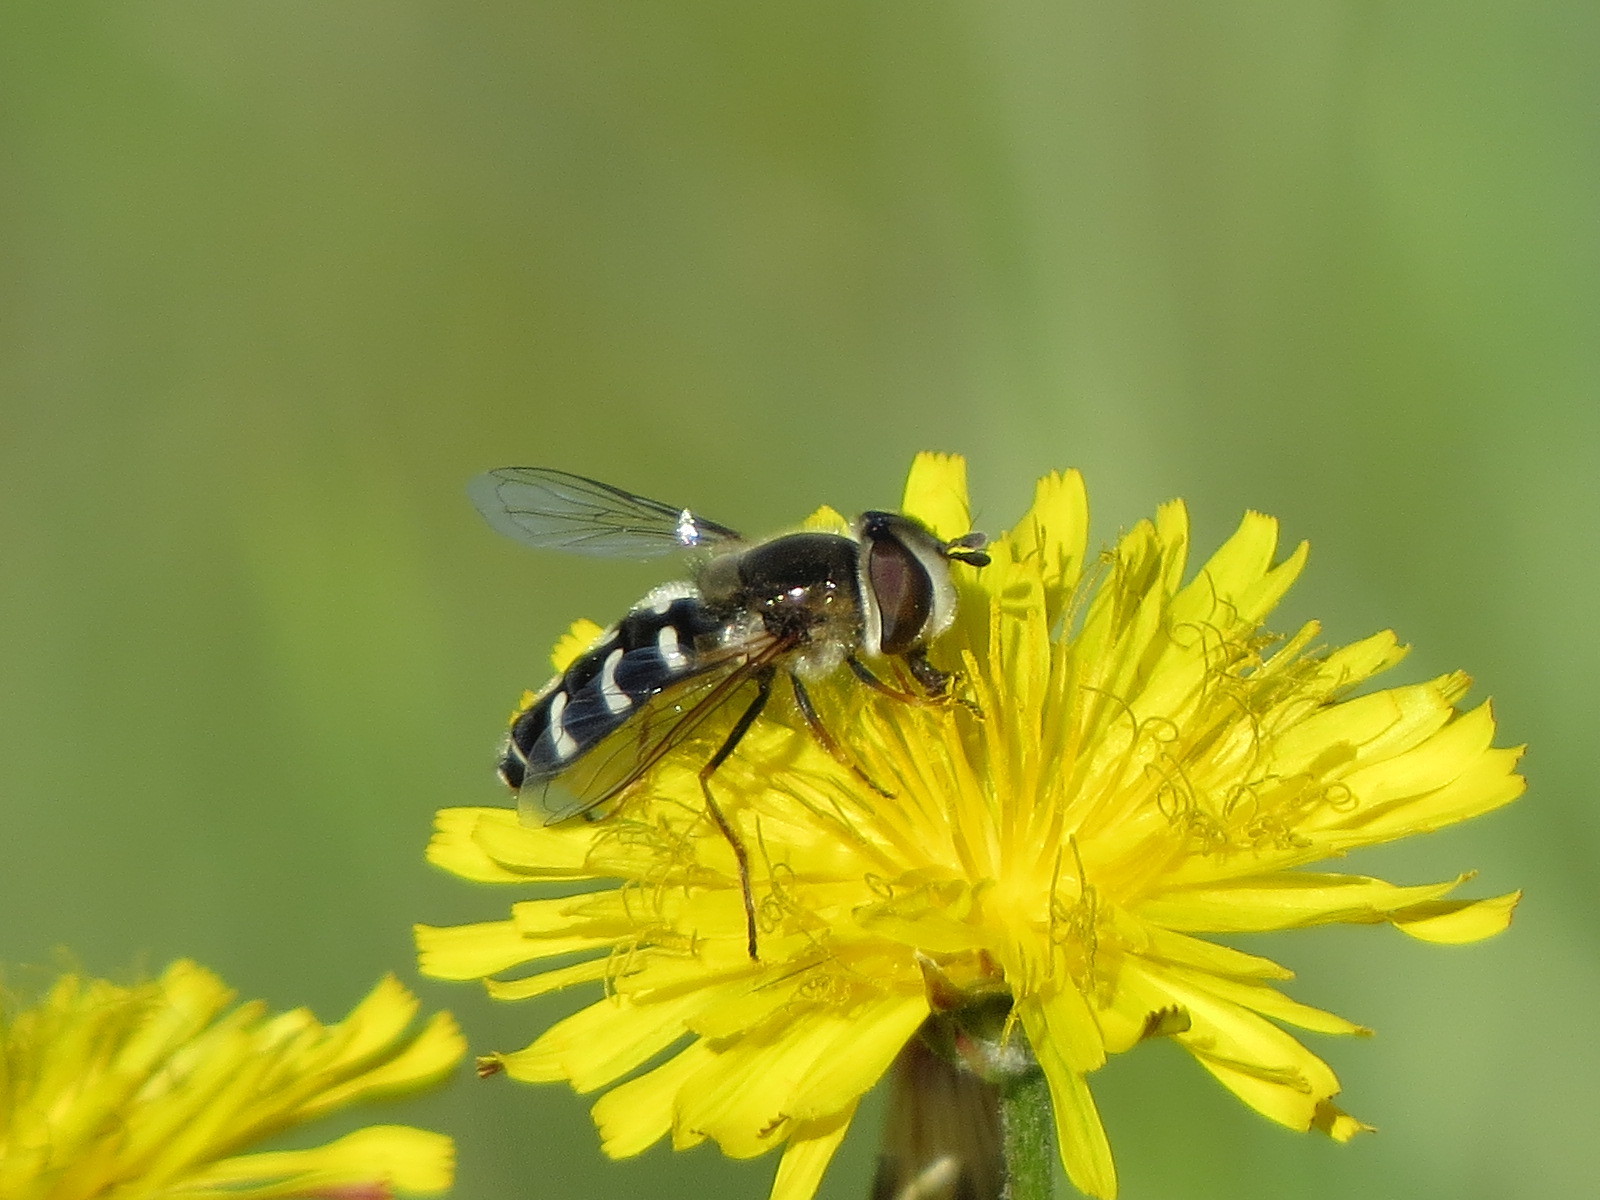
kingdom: Animalia
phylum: Arthropoda
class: Insecta
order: Diptera
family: Syrphidae
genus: Scaeva
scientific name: Scaeva affinis
